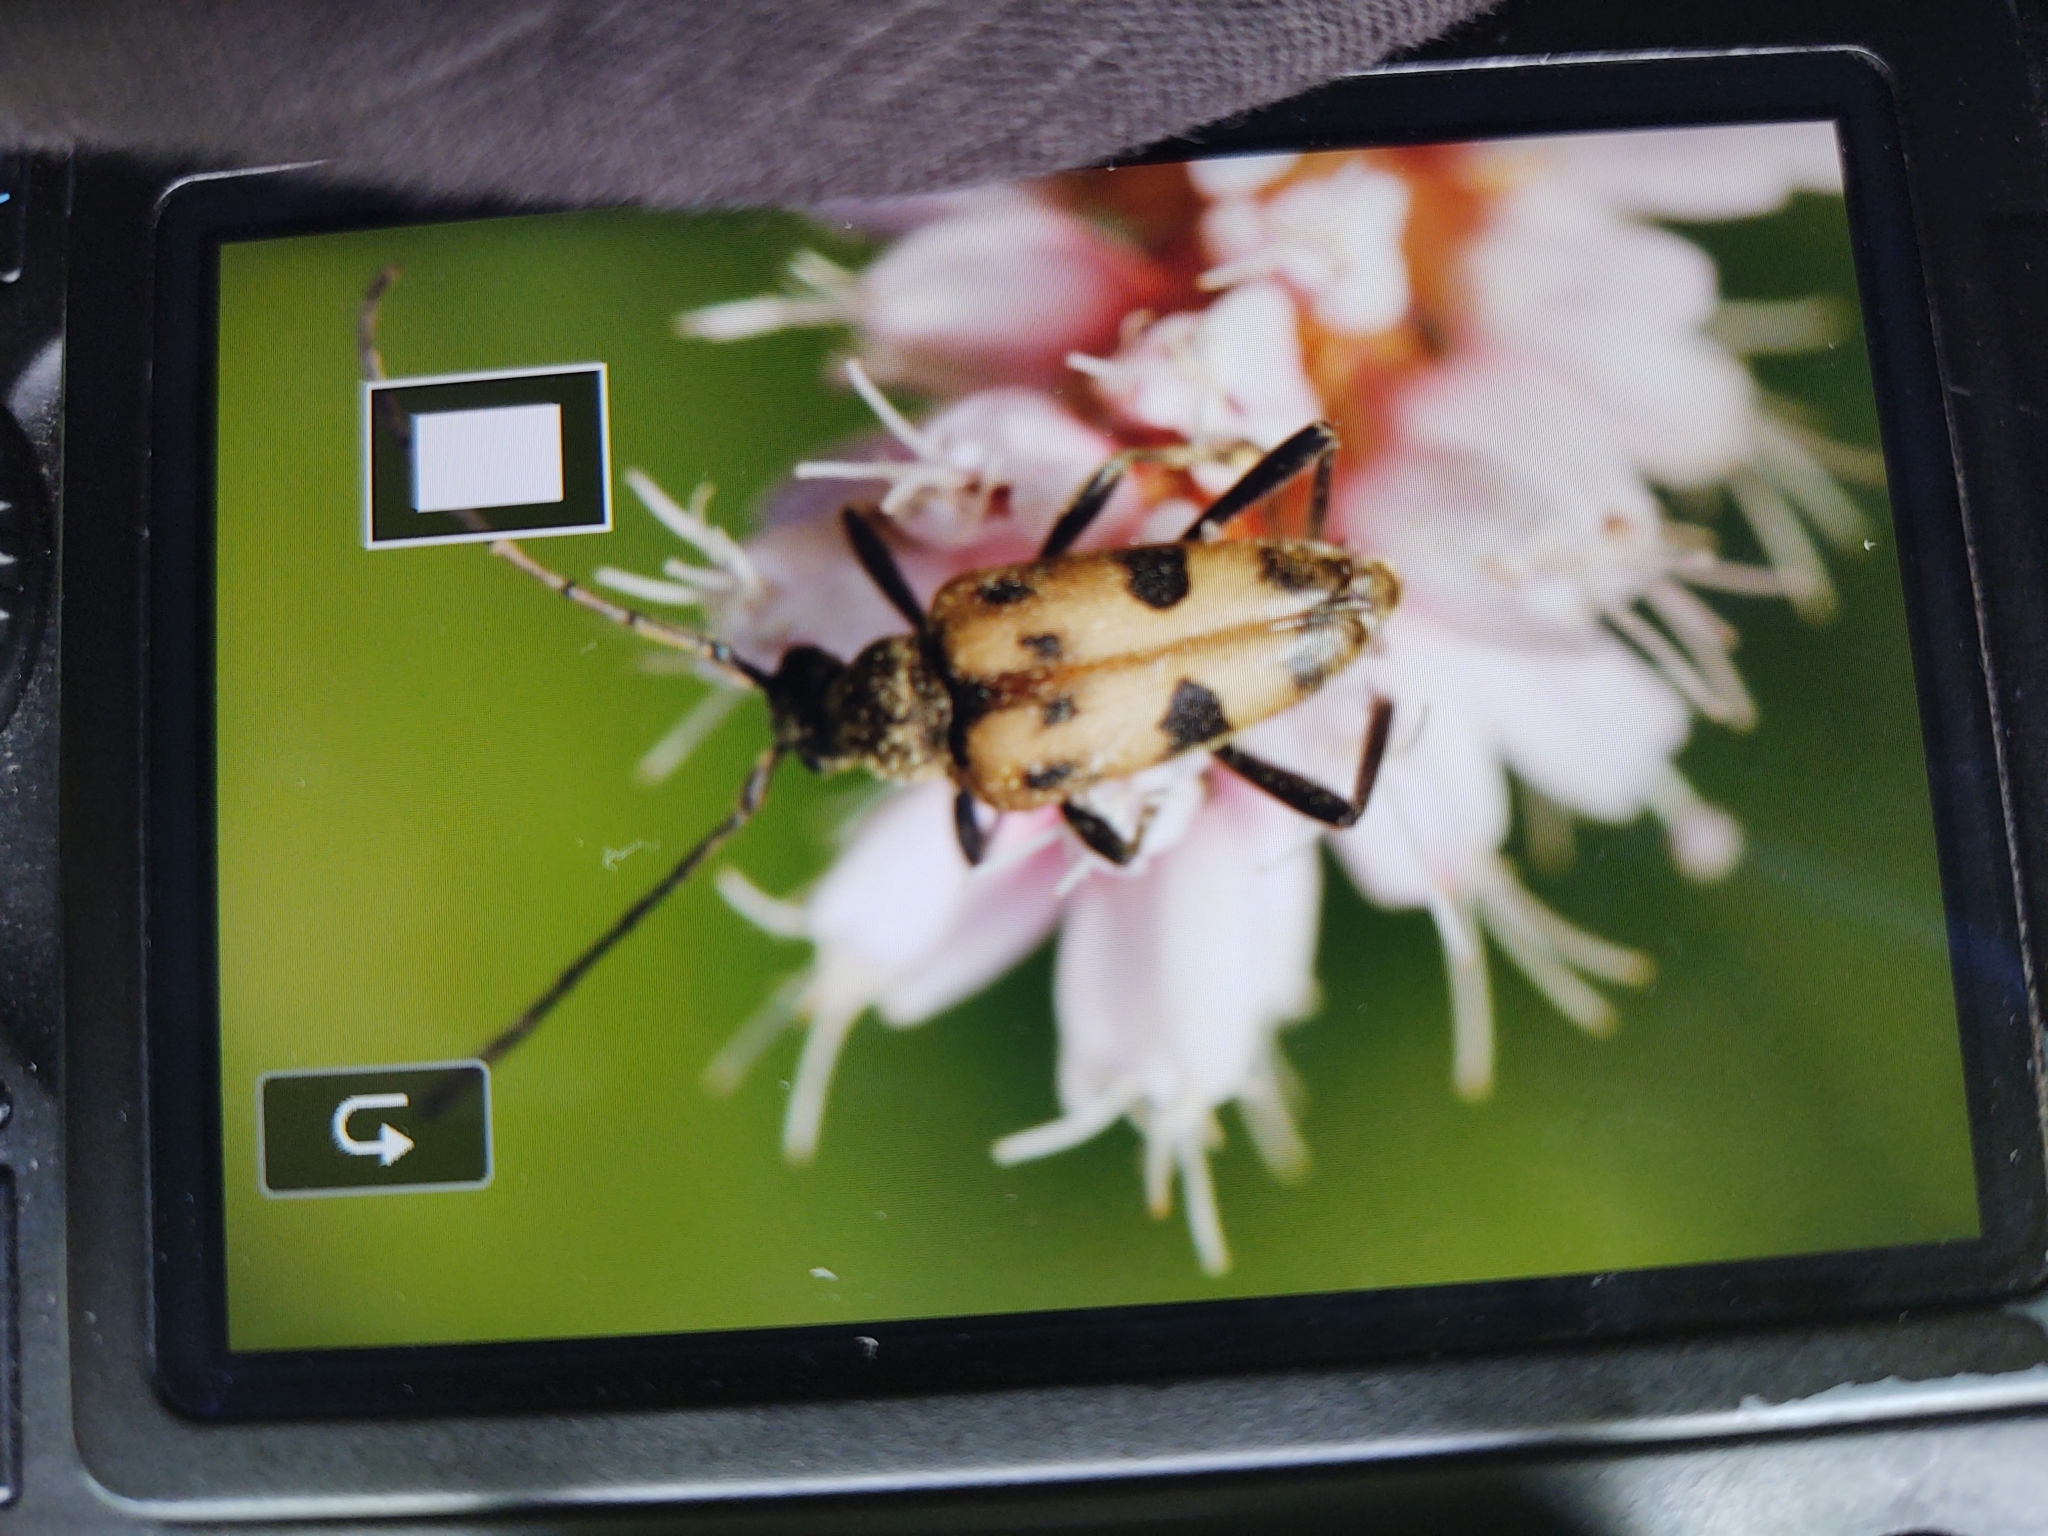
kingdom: Animalia
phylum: Arthropoda
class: Insecta
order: Coleoptera
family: Cerambycidae
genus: Pachytodes
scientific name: Pachytodes cerambyciformis
